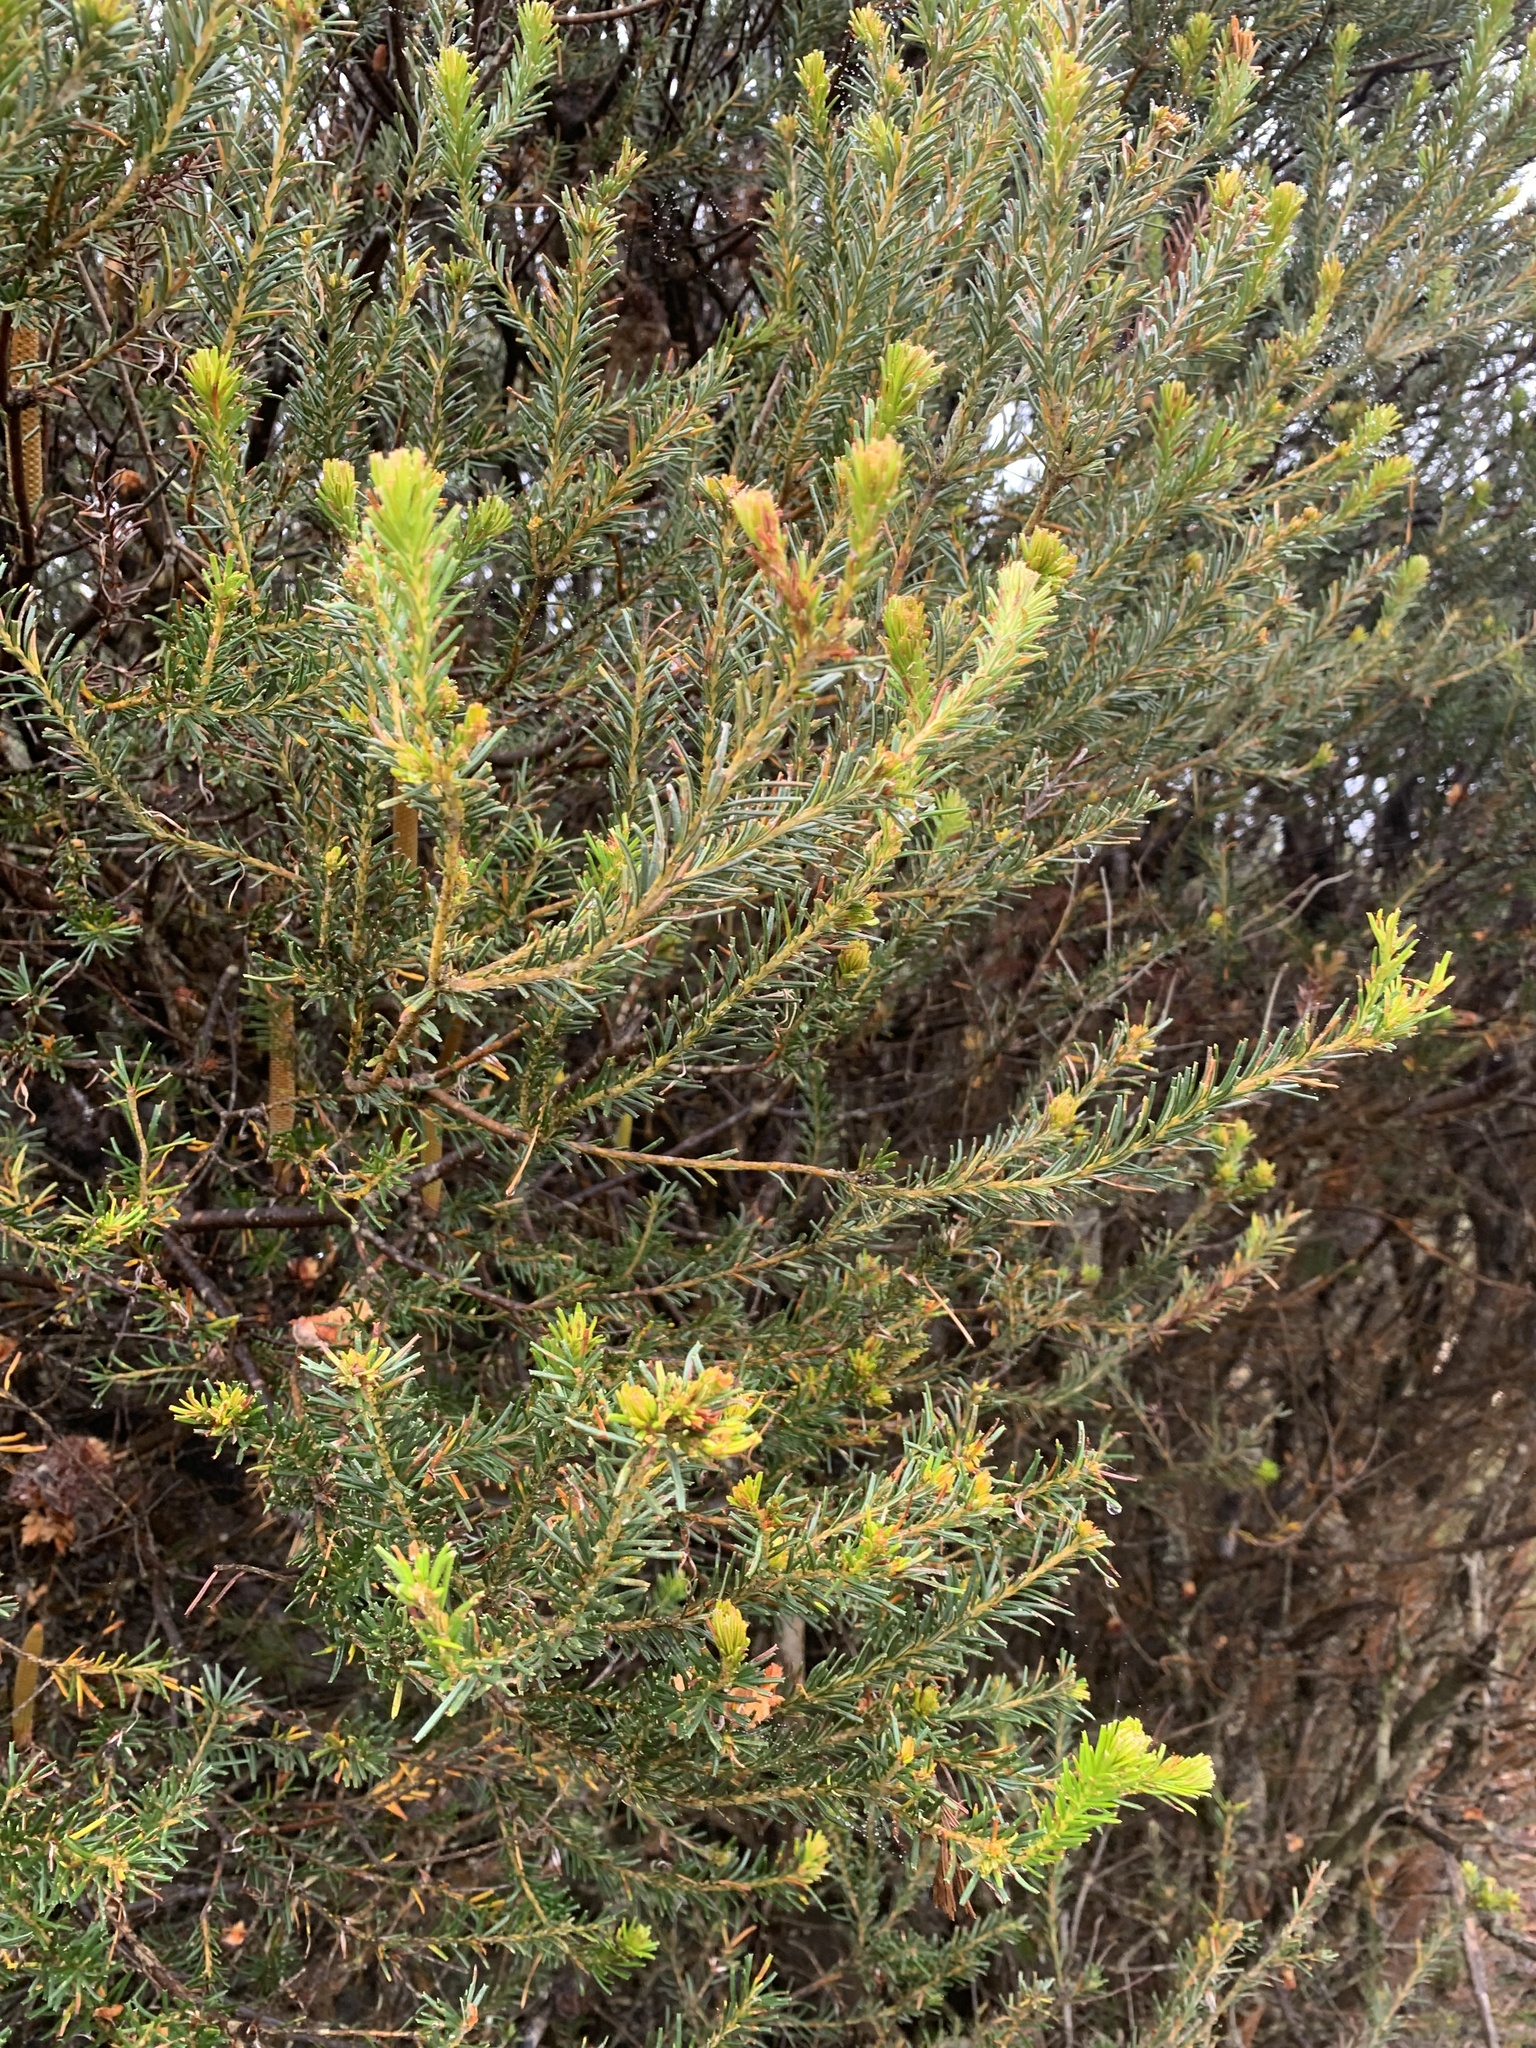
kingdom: Plantae
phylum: Tracheophyta
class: Magnoliopsida
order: Proteales
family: Proteaceae
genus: Banksia
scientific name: Banksia ericifolia
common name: Heath-leaf banksia
